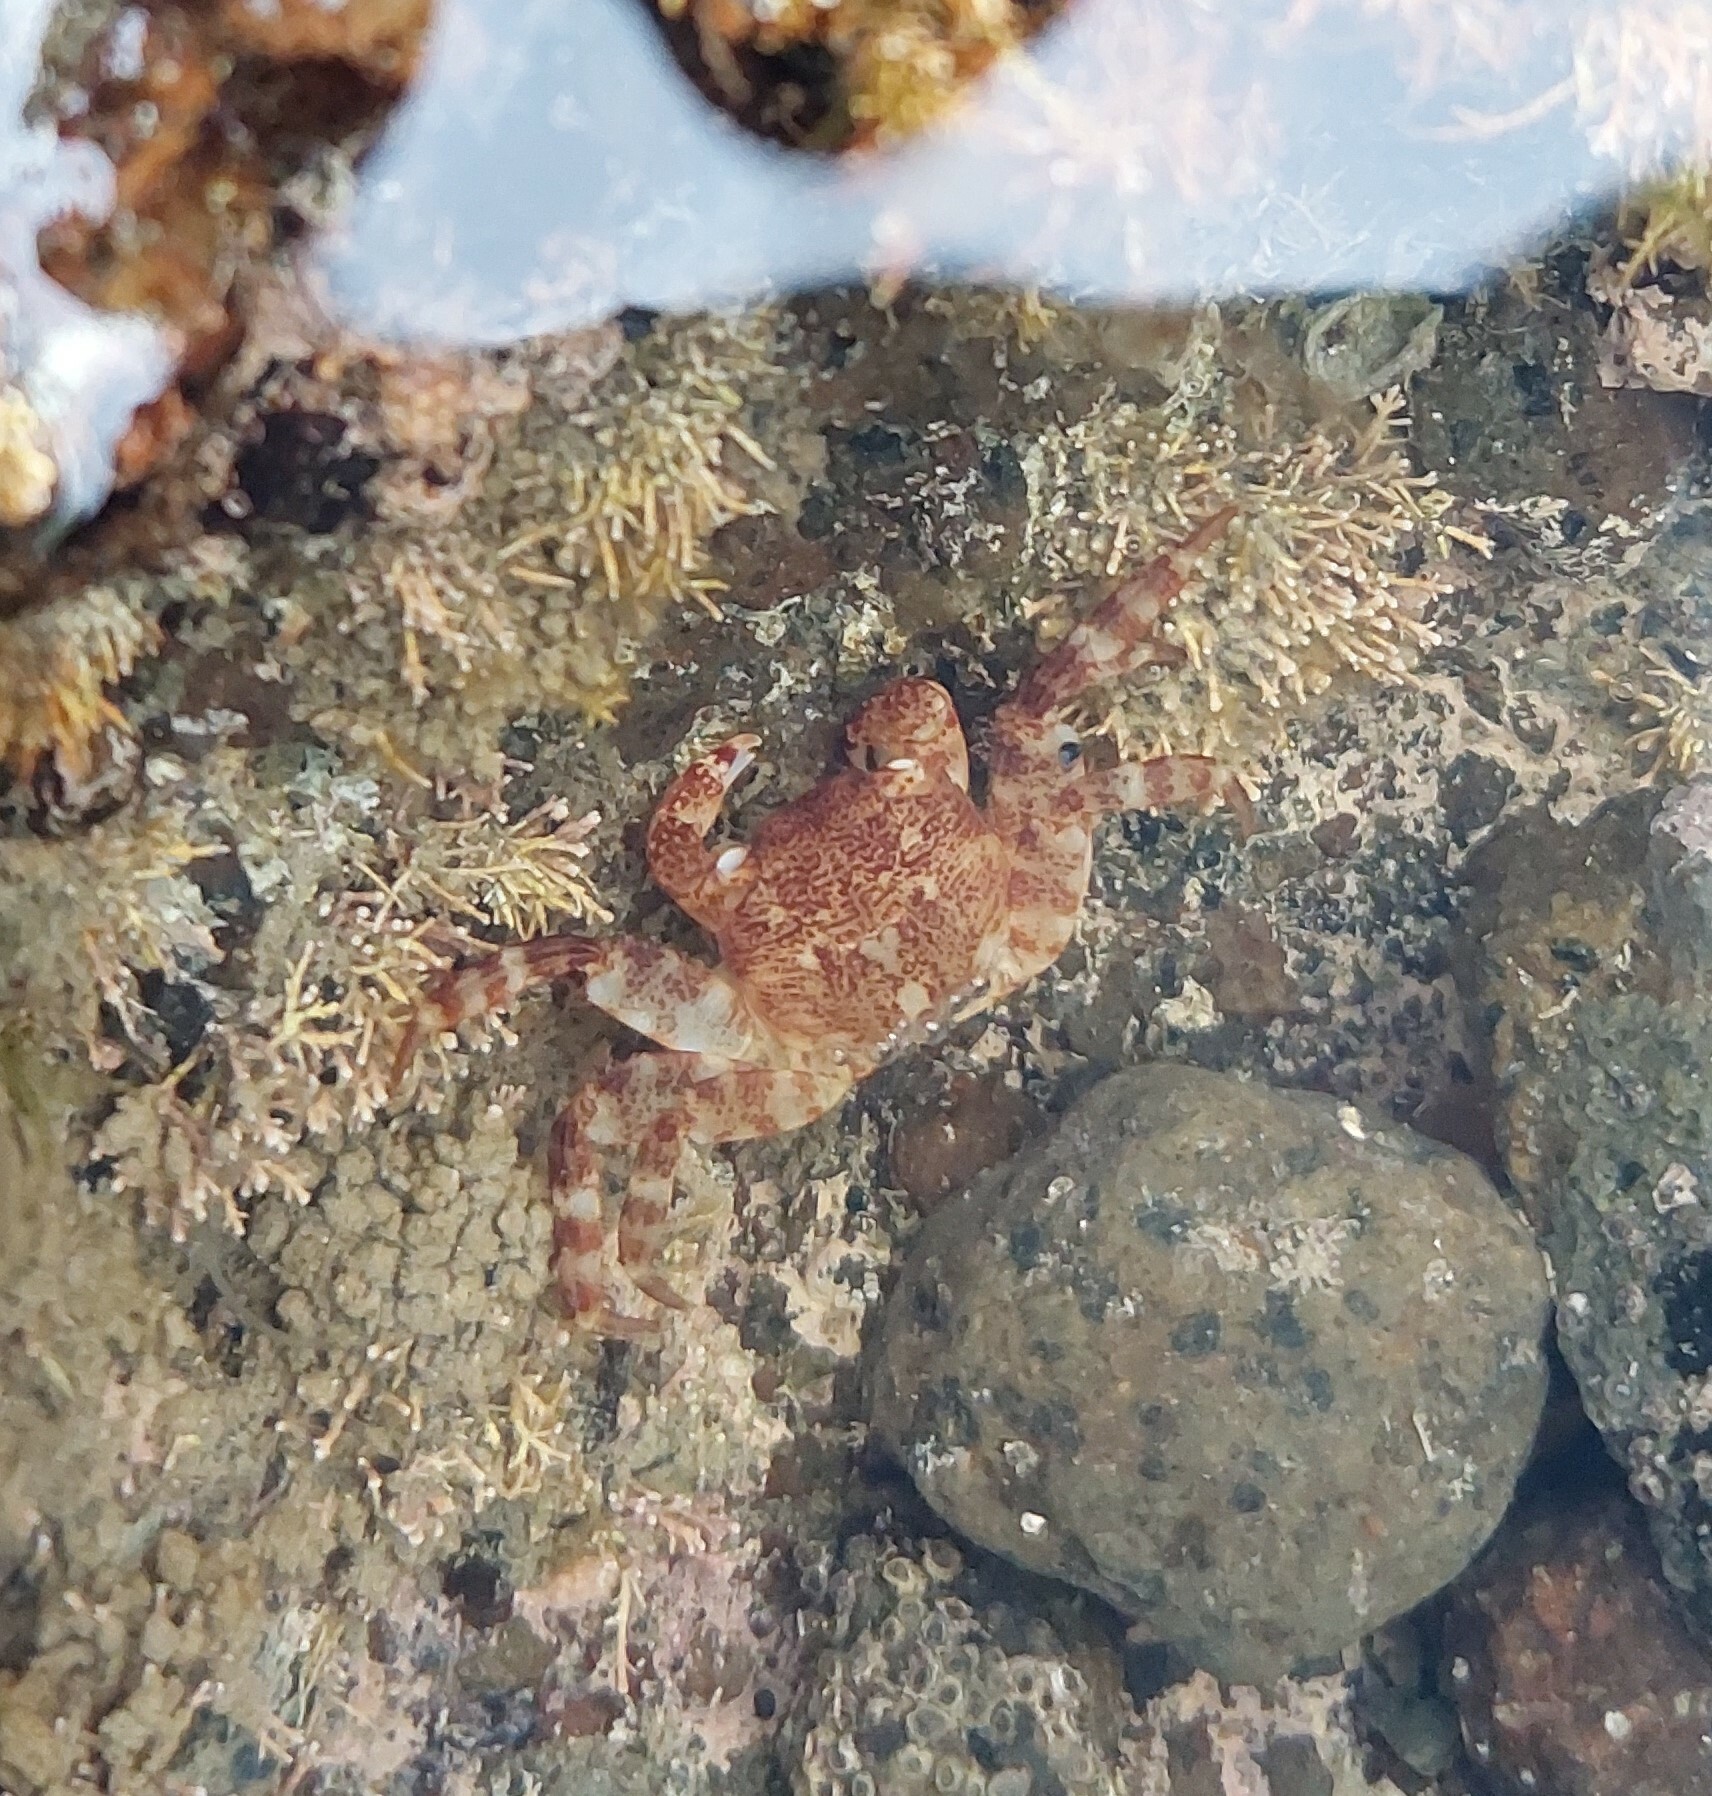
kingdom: Animalia
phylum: Arthropoda
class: Malacostraca
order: Decapoda
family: Grapsidae
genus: Leptograpsus
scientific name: Leptograpsus variegatus
